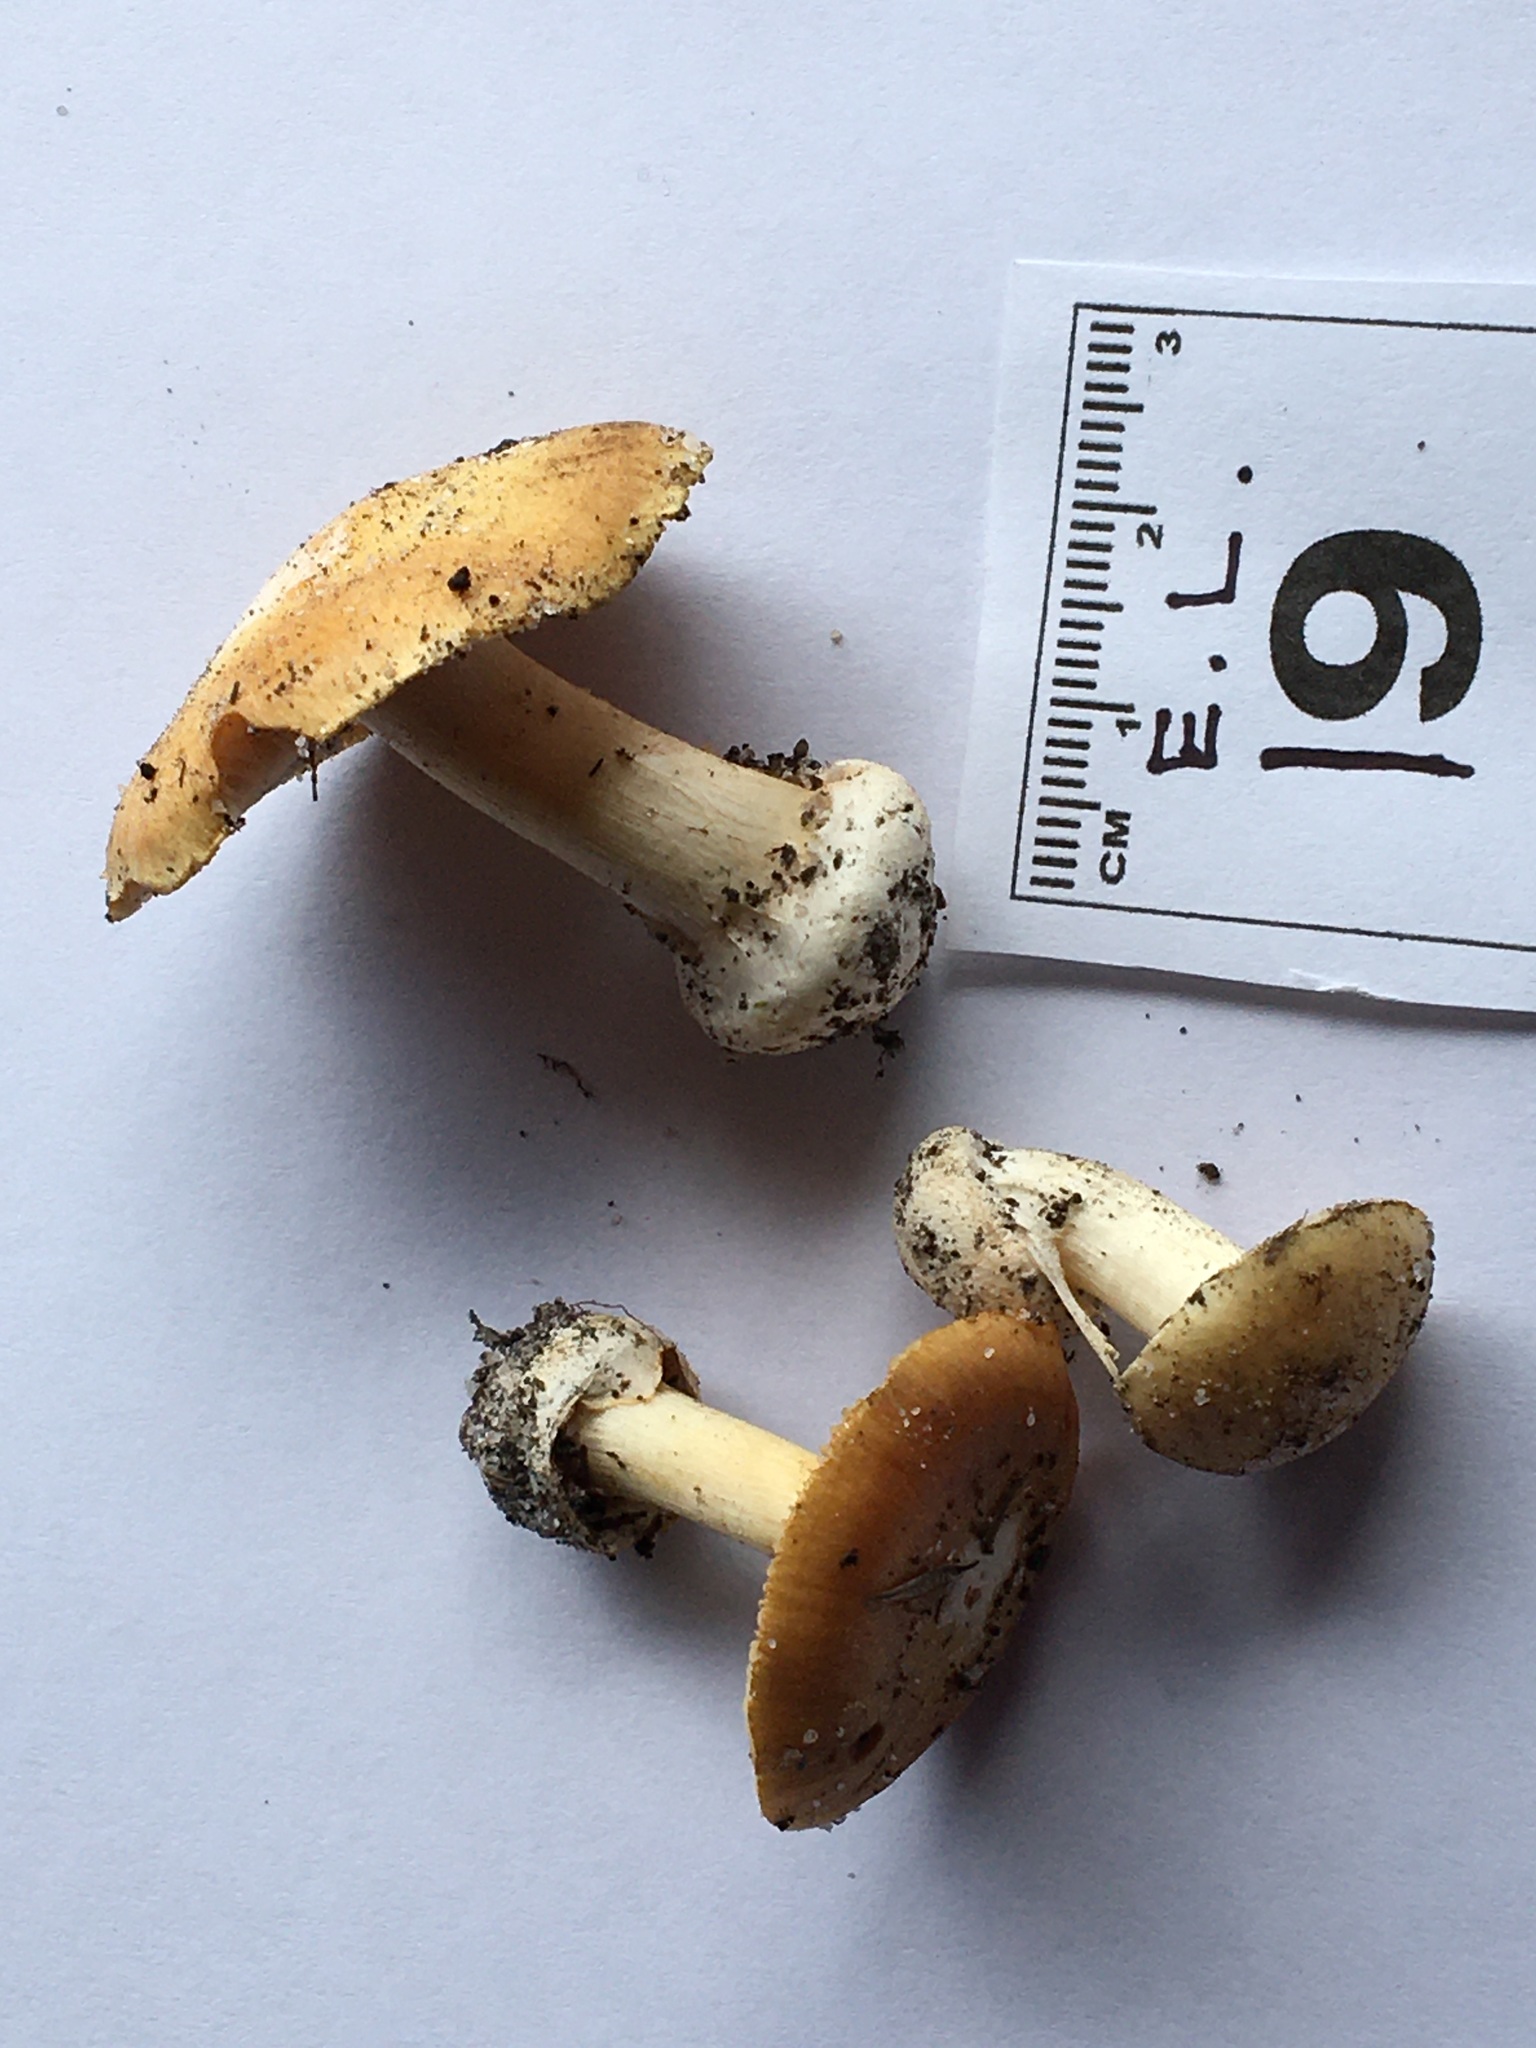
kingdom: Fungi
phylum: Basidiomycota
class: Agaricomycetes
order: Agaricales
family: Cortinariaceae
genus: Cortinarius
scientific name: Cortinarius phalarus
